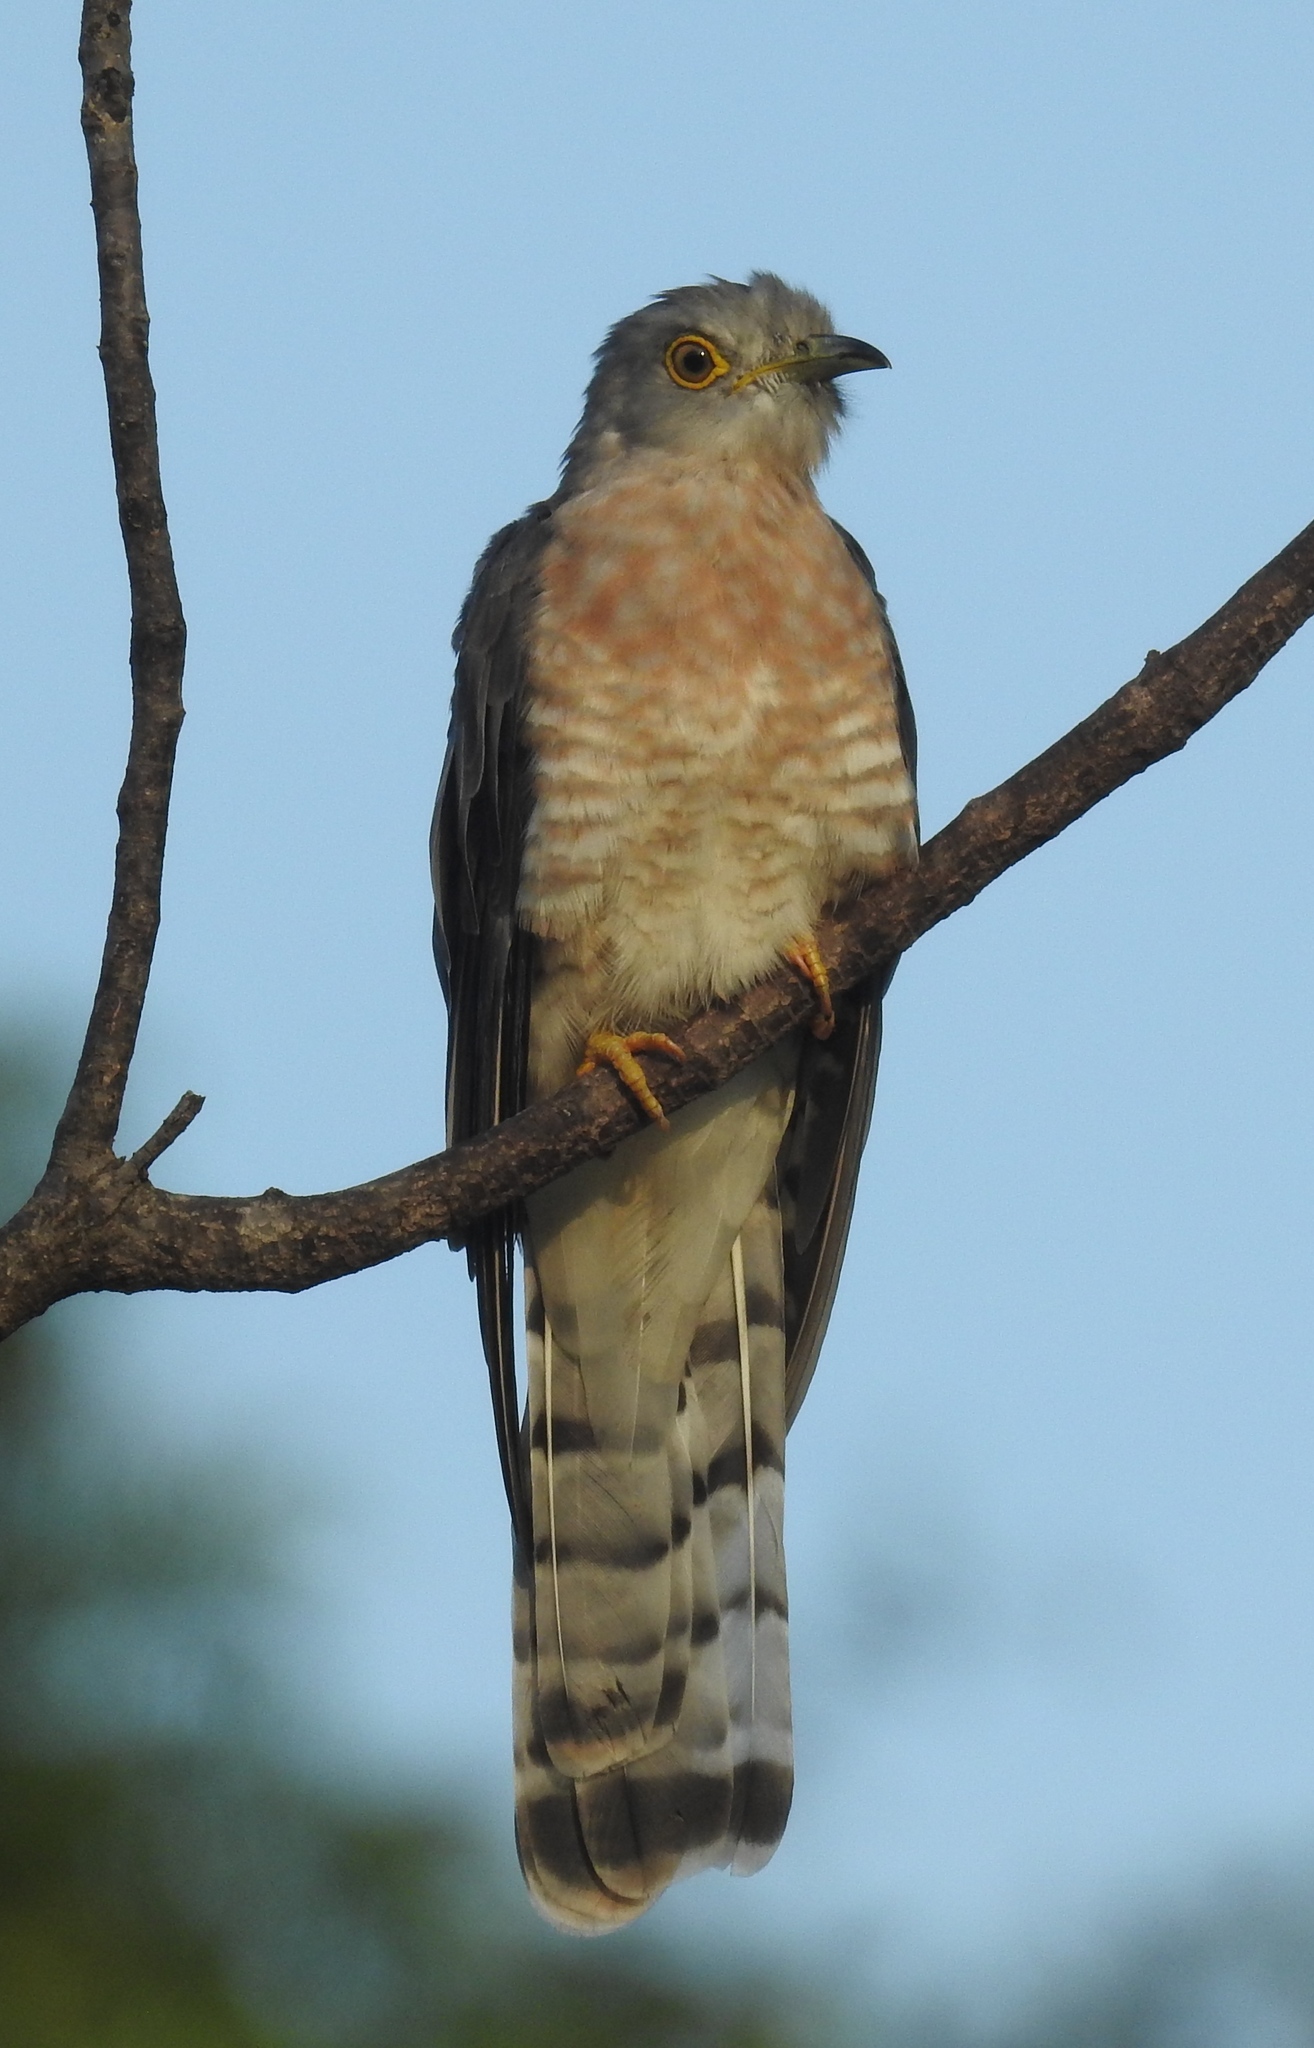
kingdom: Animalia
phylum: Chordata
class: Aves
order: Cuculiformes
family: Cuculidae
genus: Cuculus
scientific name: Cuculus varius
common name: Common hawk cuckoo
